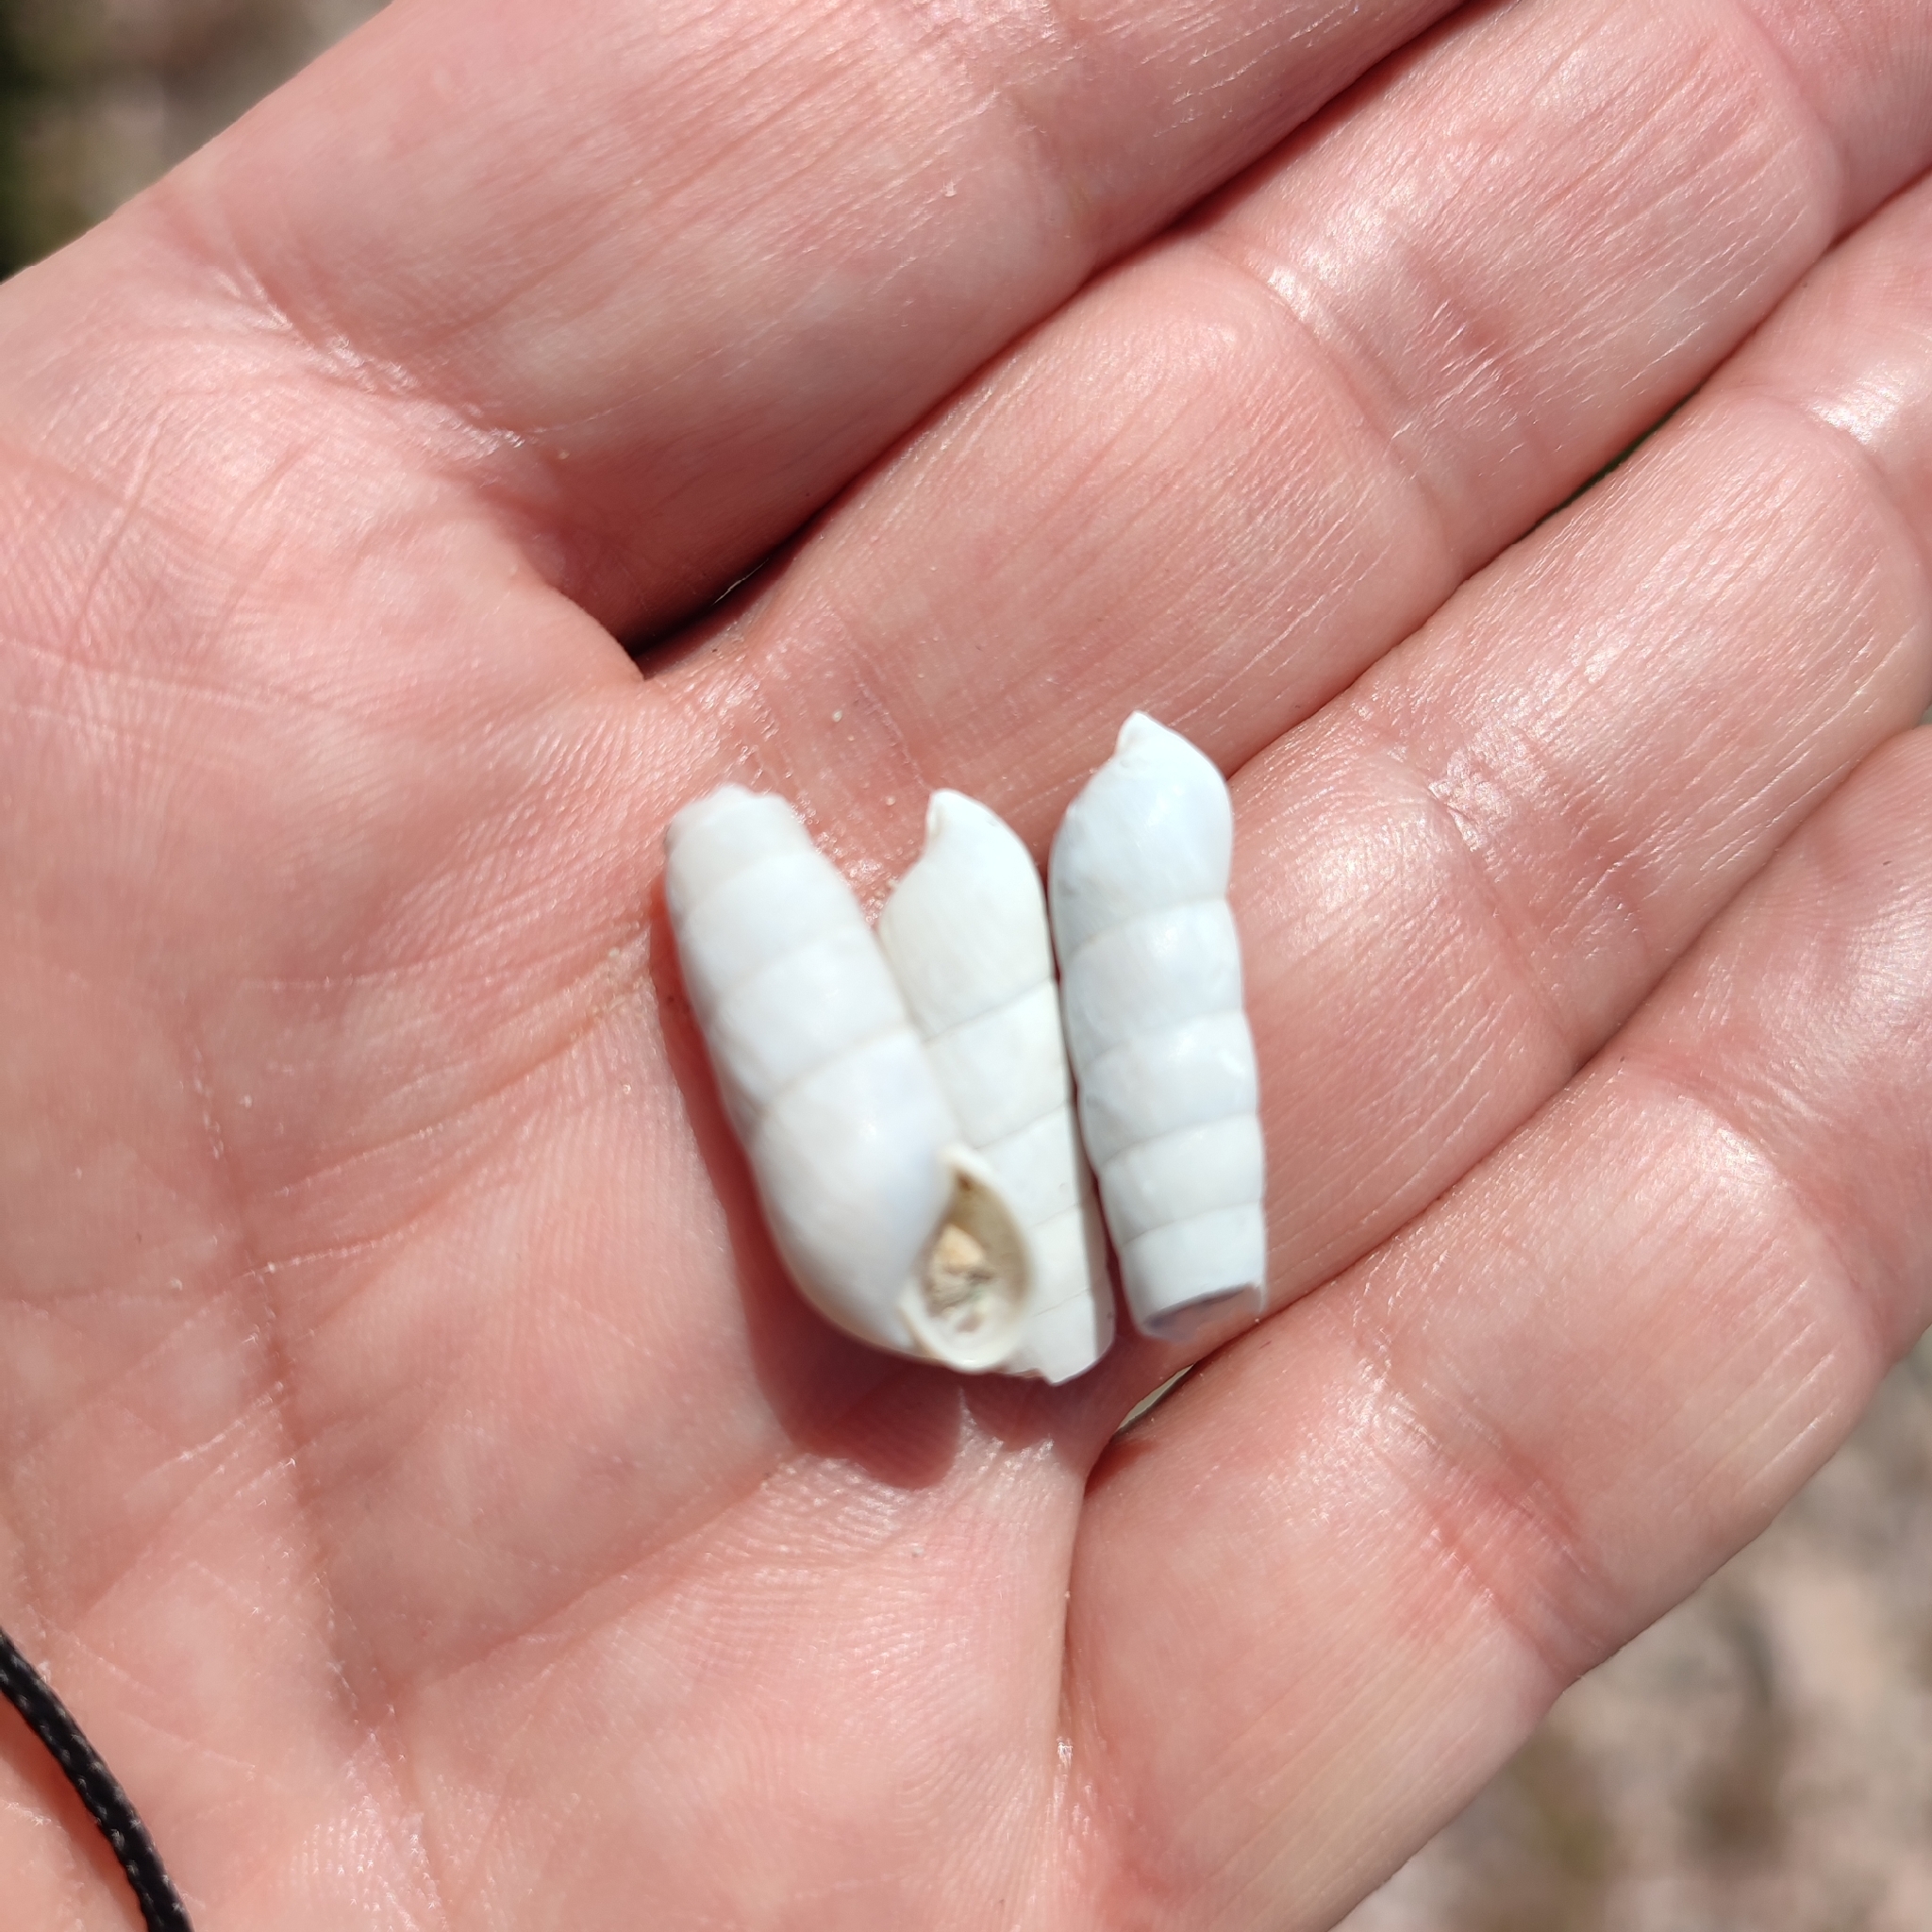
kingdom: Animalia
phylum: Mollusca
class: Gastropoda
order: Stylommatophora
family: Achatinidae
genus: Rumina
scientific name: Rumina saharica
